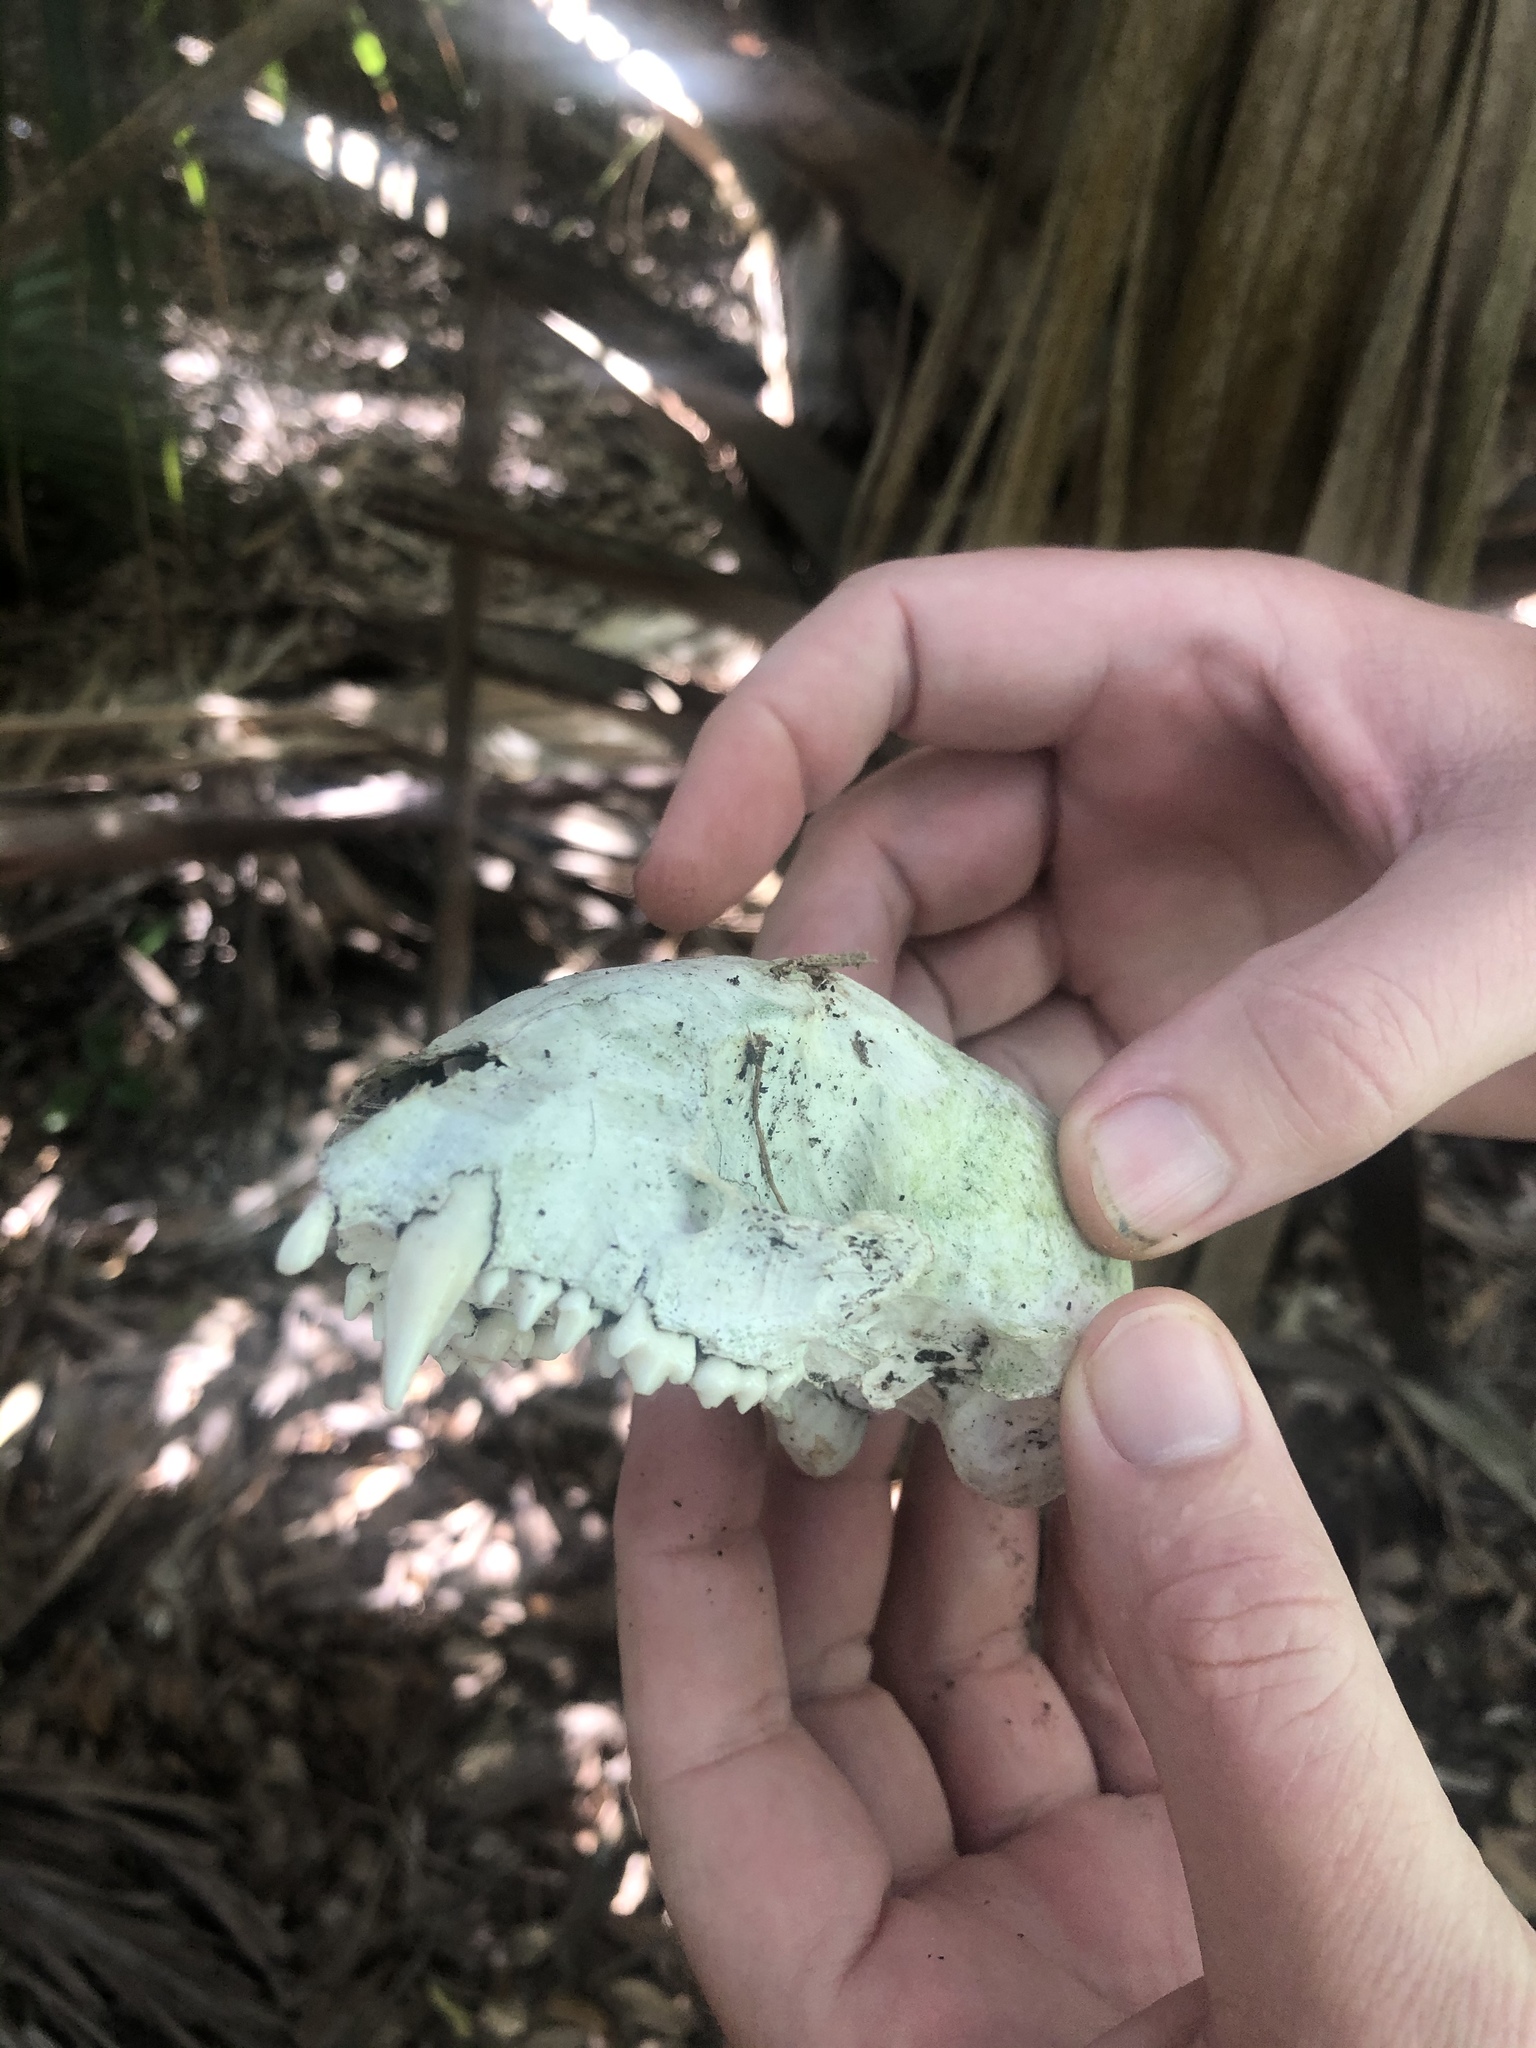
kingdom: Animalia
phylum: Chordata
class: Mammalia
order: Carnivora
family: Procyonidae
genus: Procyon
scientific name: Procyon lotor
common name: Raccoon
